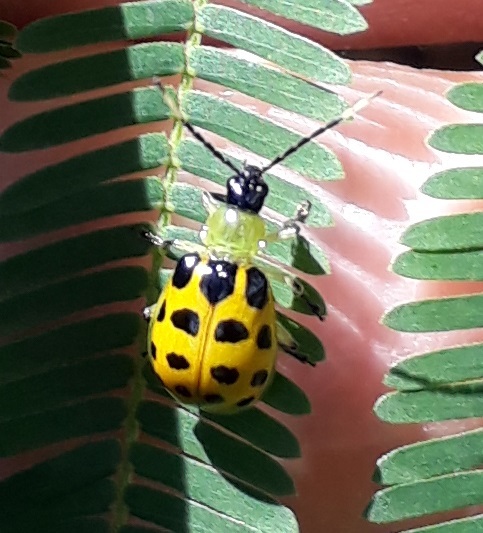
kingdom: Animalia
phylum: Arthropoda
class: Insecta
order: Coleoptera
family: Chrysomelidae
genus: Diabrotica
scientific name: Diabrotica limitata
